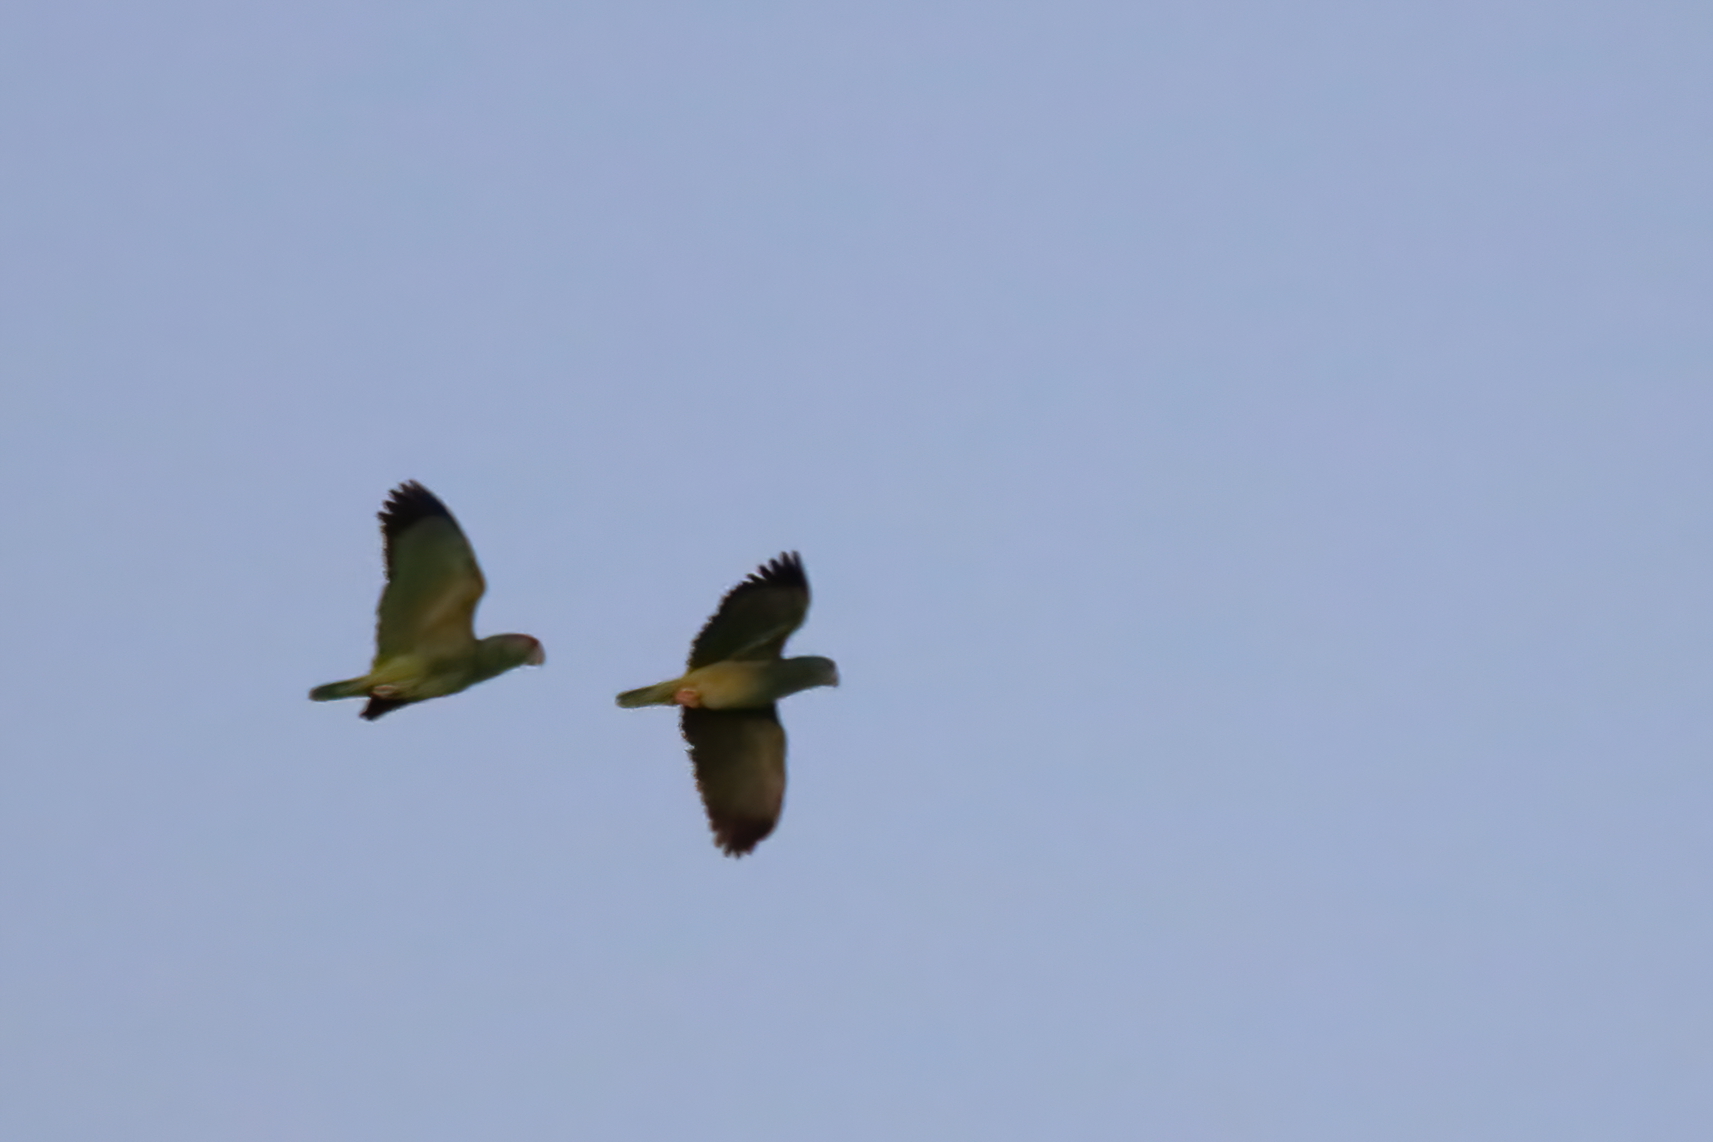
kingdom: Animalia
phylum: Chordata
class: Aves
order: Psittaciformes
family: Psittacidae
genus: Amazona
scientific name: Amazona viridigenalis
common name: Red-crowned amazon
